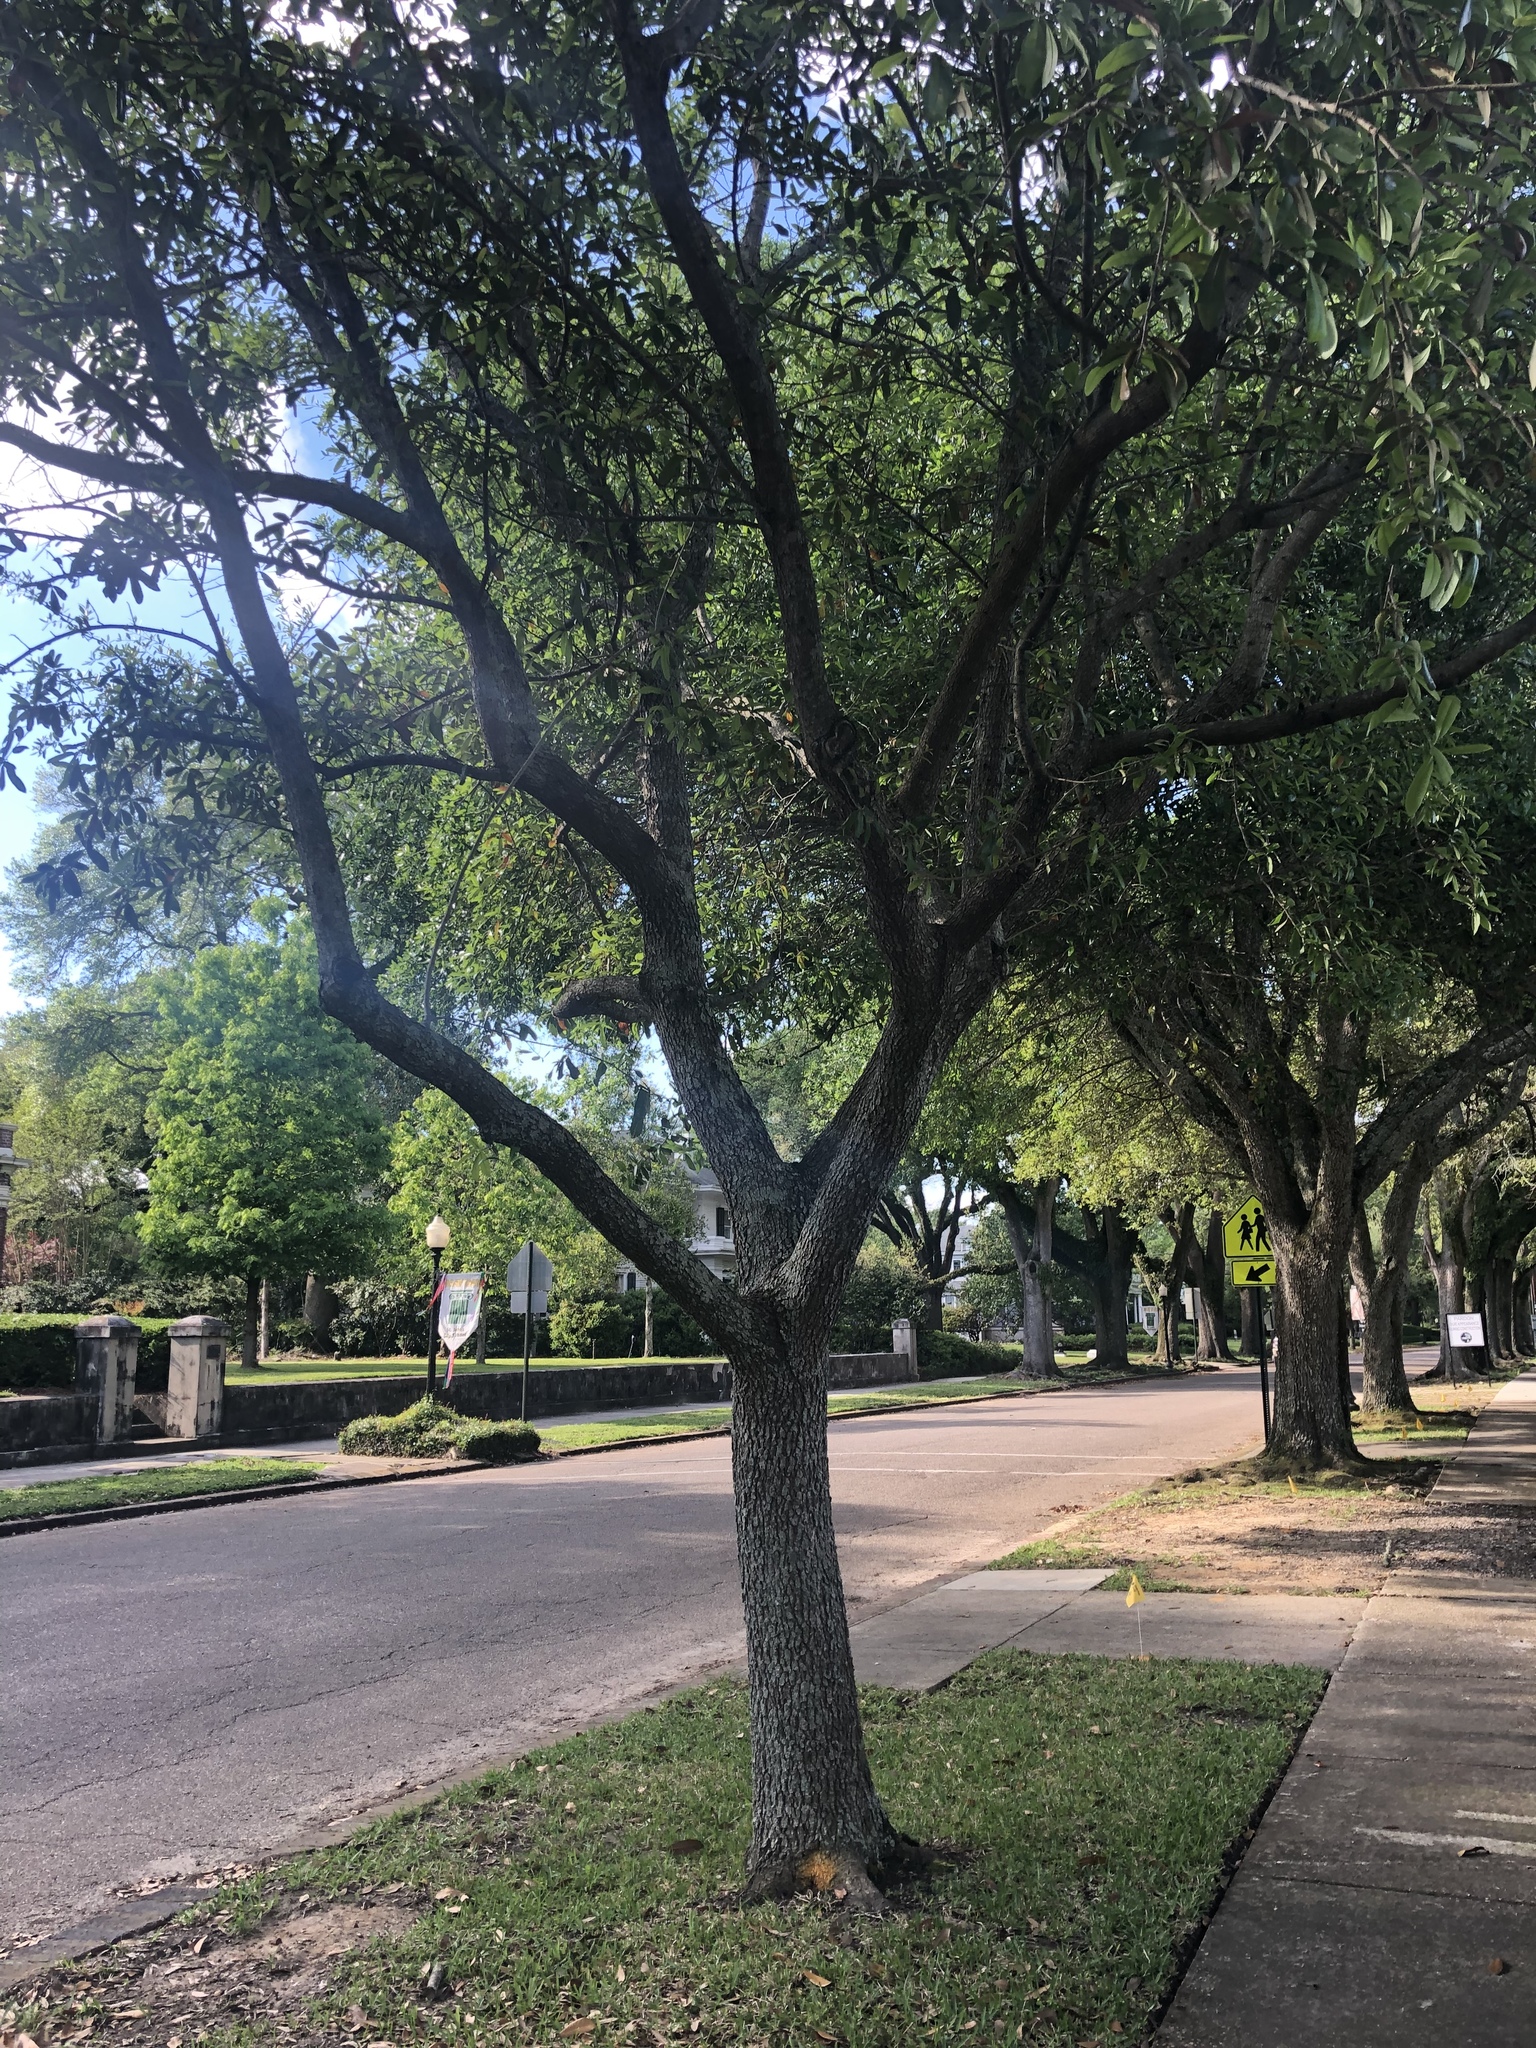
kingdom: Plantae
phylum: Tracheophyta
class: Magnoliopsida
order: Fagales
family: Fagaceae
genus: Quercus
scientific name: Quercus virginiana
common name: Southern live oak
